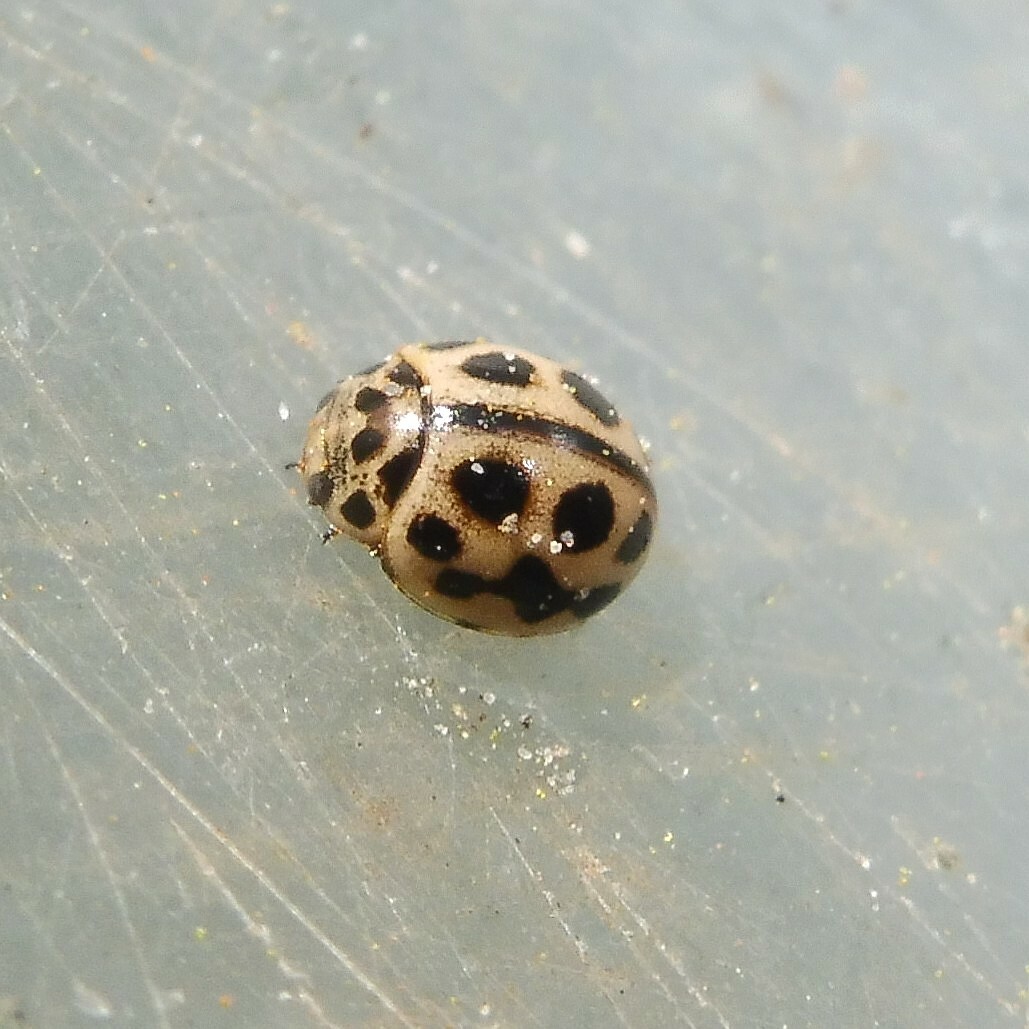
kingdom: Animalia
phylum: Arthropoda
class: Insecta
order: Coleoptera
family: Coccinellidae
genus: Tytthaspis
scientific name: Tytthaspis sedecimpunctata
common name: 16-spot ladybird
